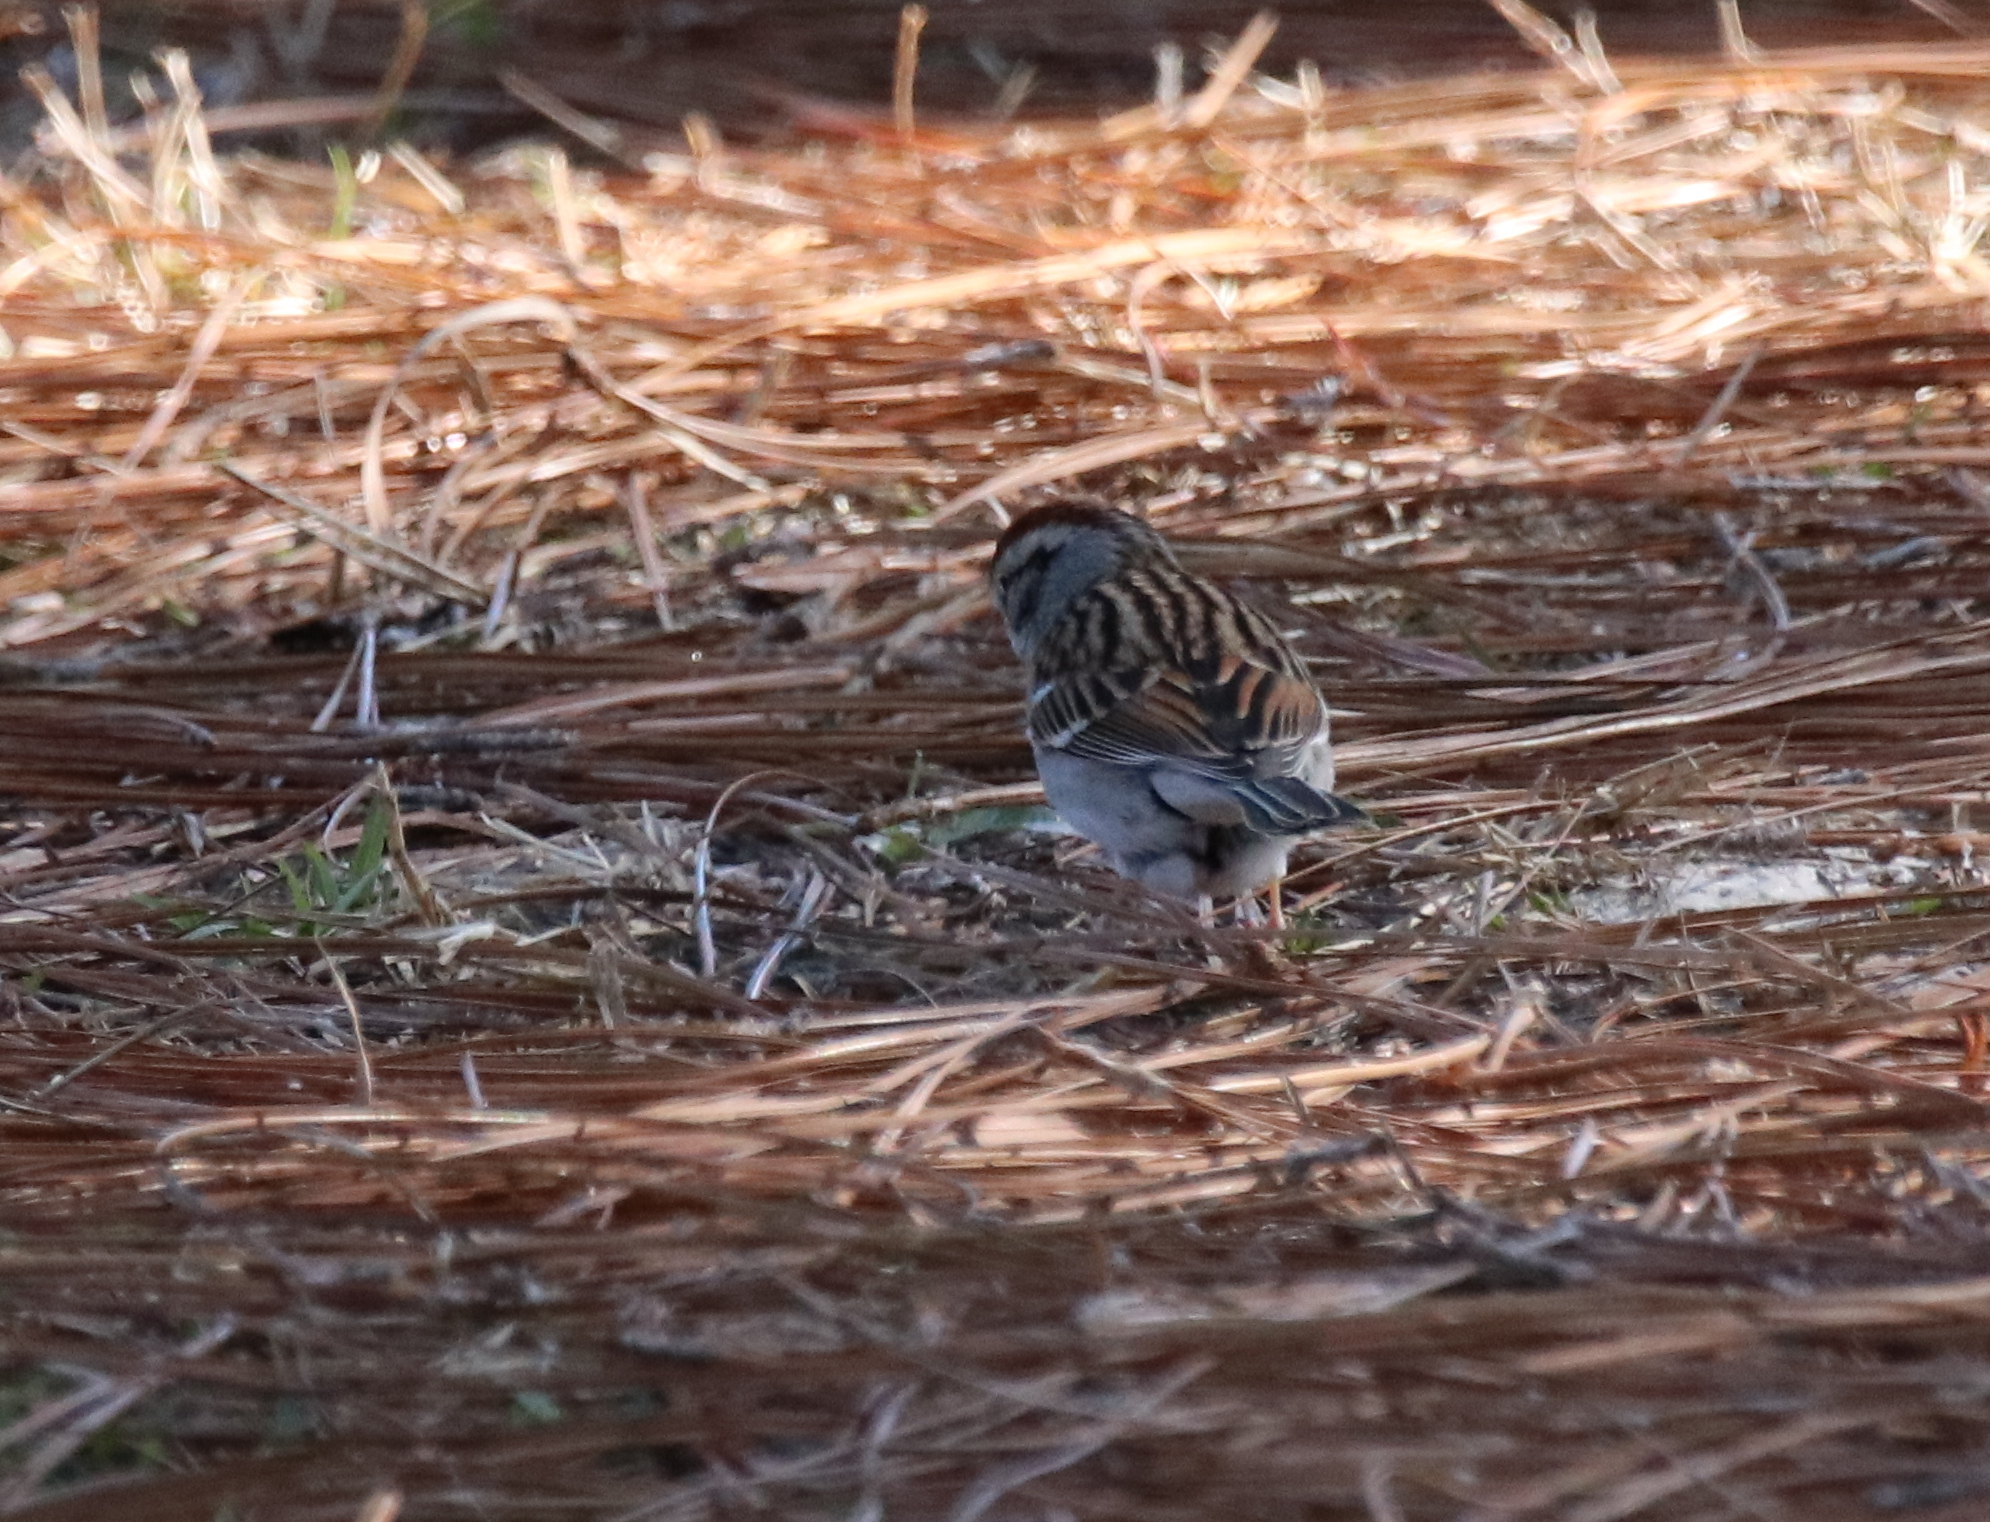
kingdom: Animalia
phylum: Chordata
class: Aves
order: Passeriformes
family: Passerellidae
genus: Spizella
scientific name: Spizella passerina
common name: Chipping sparrow
